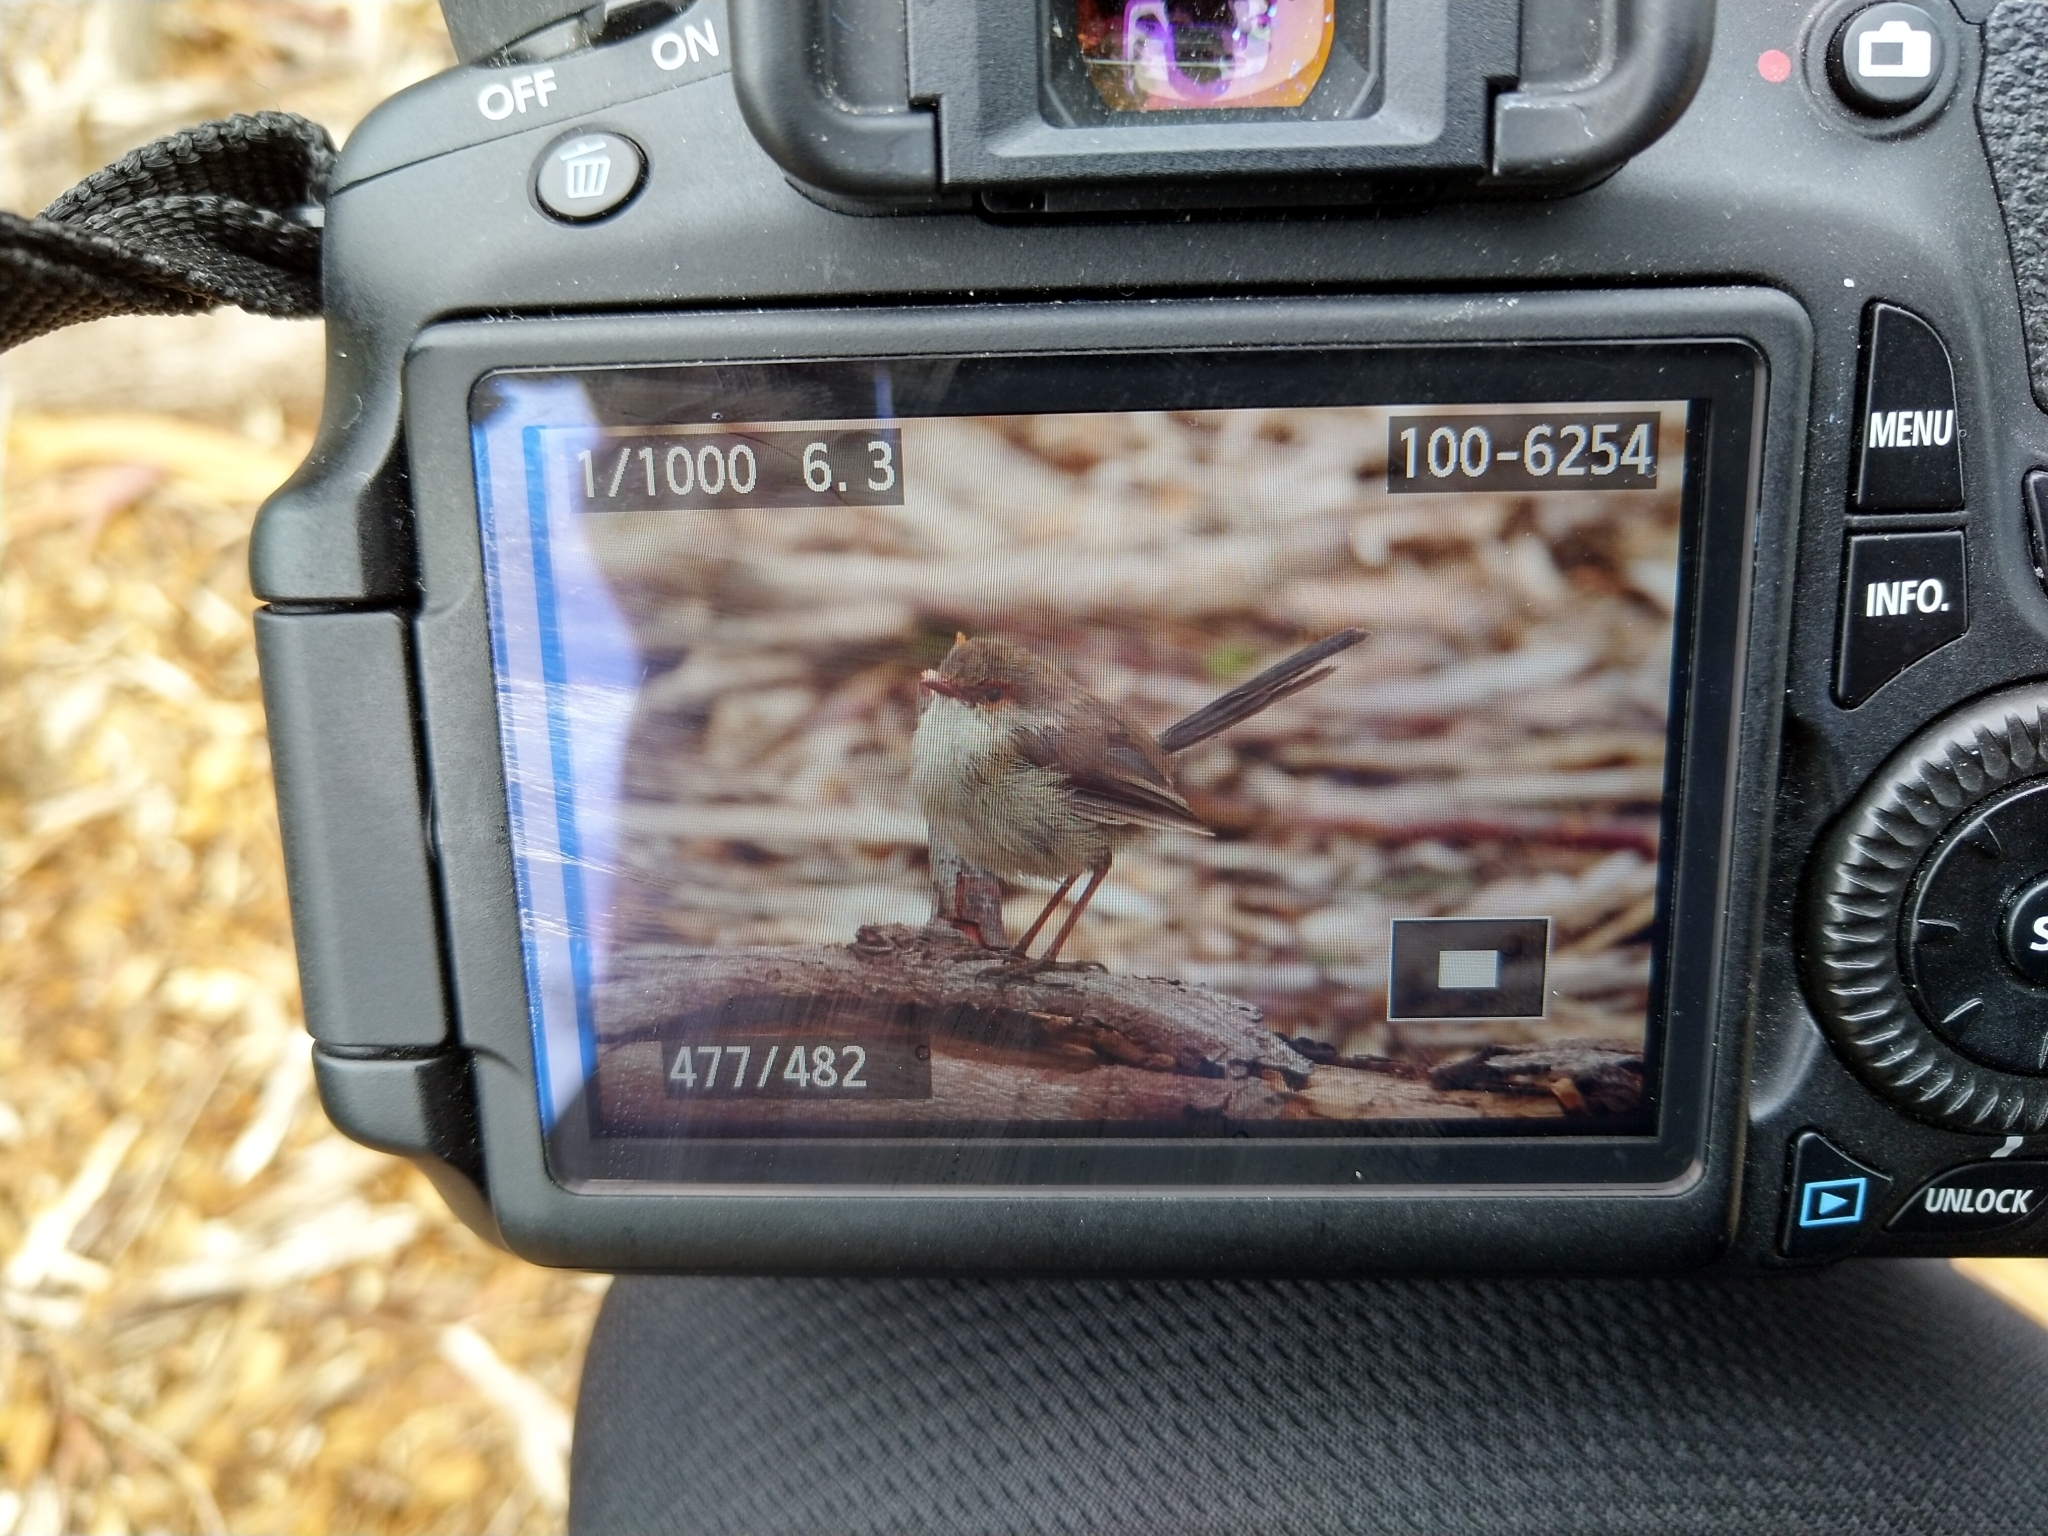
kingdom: Animalia
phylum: Chordata
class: Aves
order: Passeriformes
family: Maluridae
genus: Malurus
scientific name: Malurus cyaneus
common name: Superb fairywren
